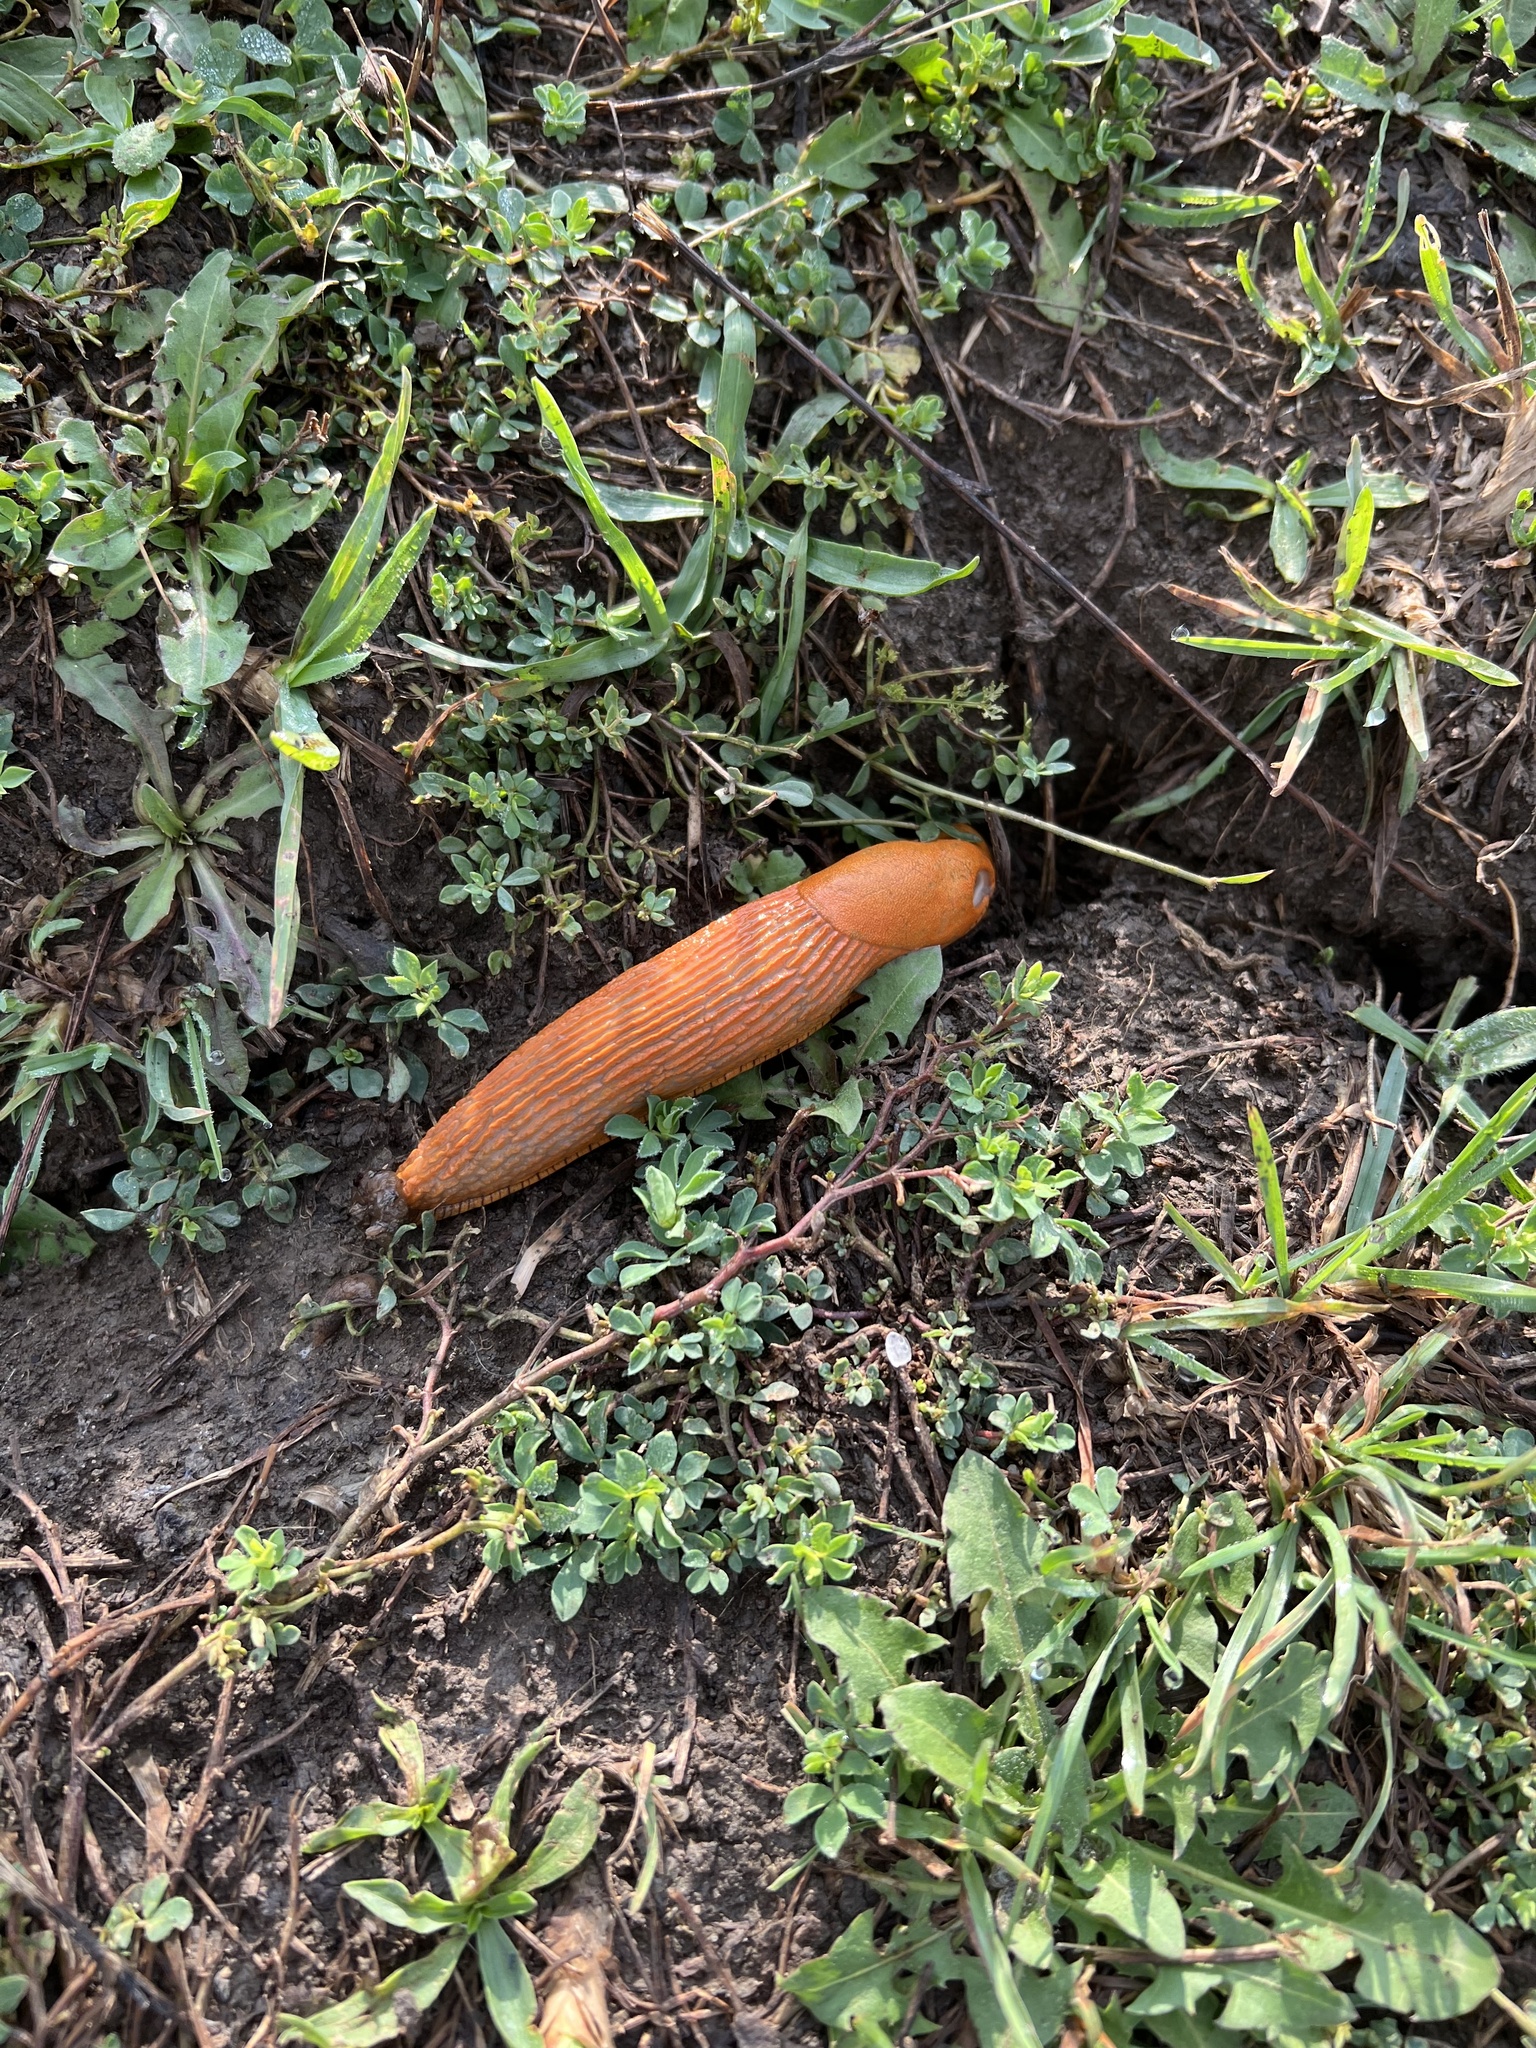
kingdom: Animalia
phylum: Mollusca
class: Gastropoda
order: Stylommatophora
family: Arionidae
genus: Arion
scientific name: Arion vulgaris
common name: Lusitanian slug
